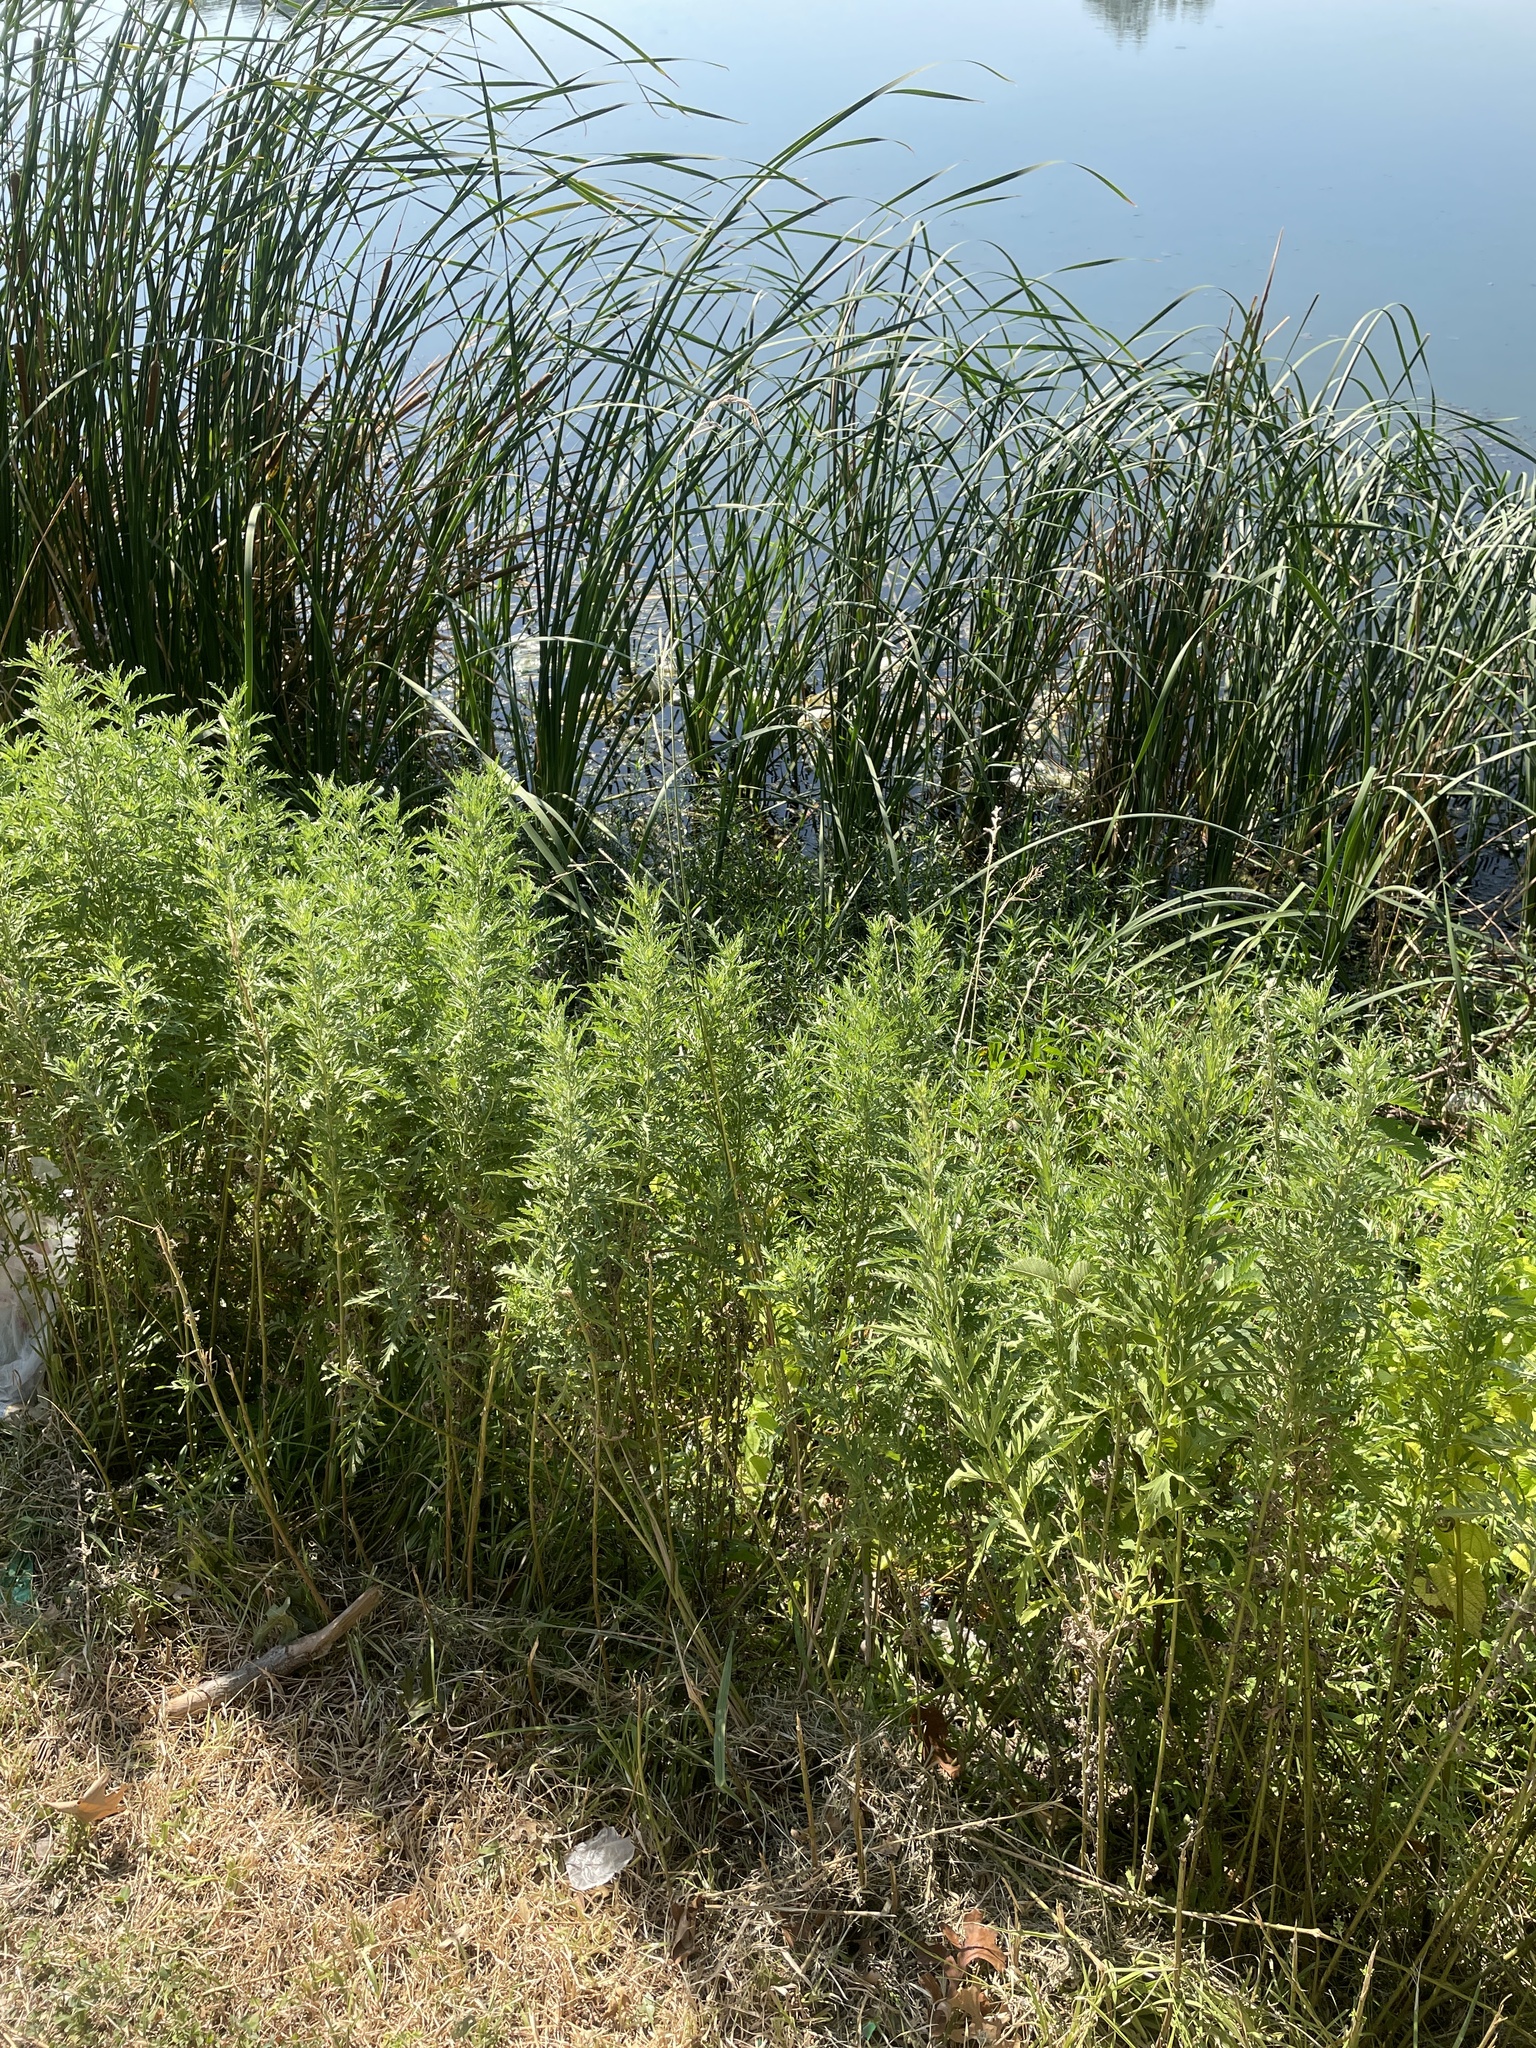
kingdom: Plantae
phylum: Tracheophyta
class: Liliopsida
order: Poales
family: Poaceae
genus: Paspalum
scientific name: Paspalum urvillei
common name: Vasey's grass
